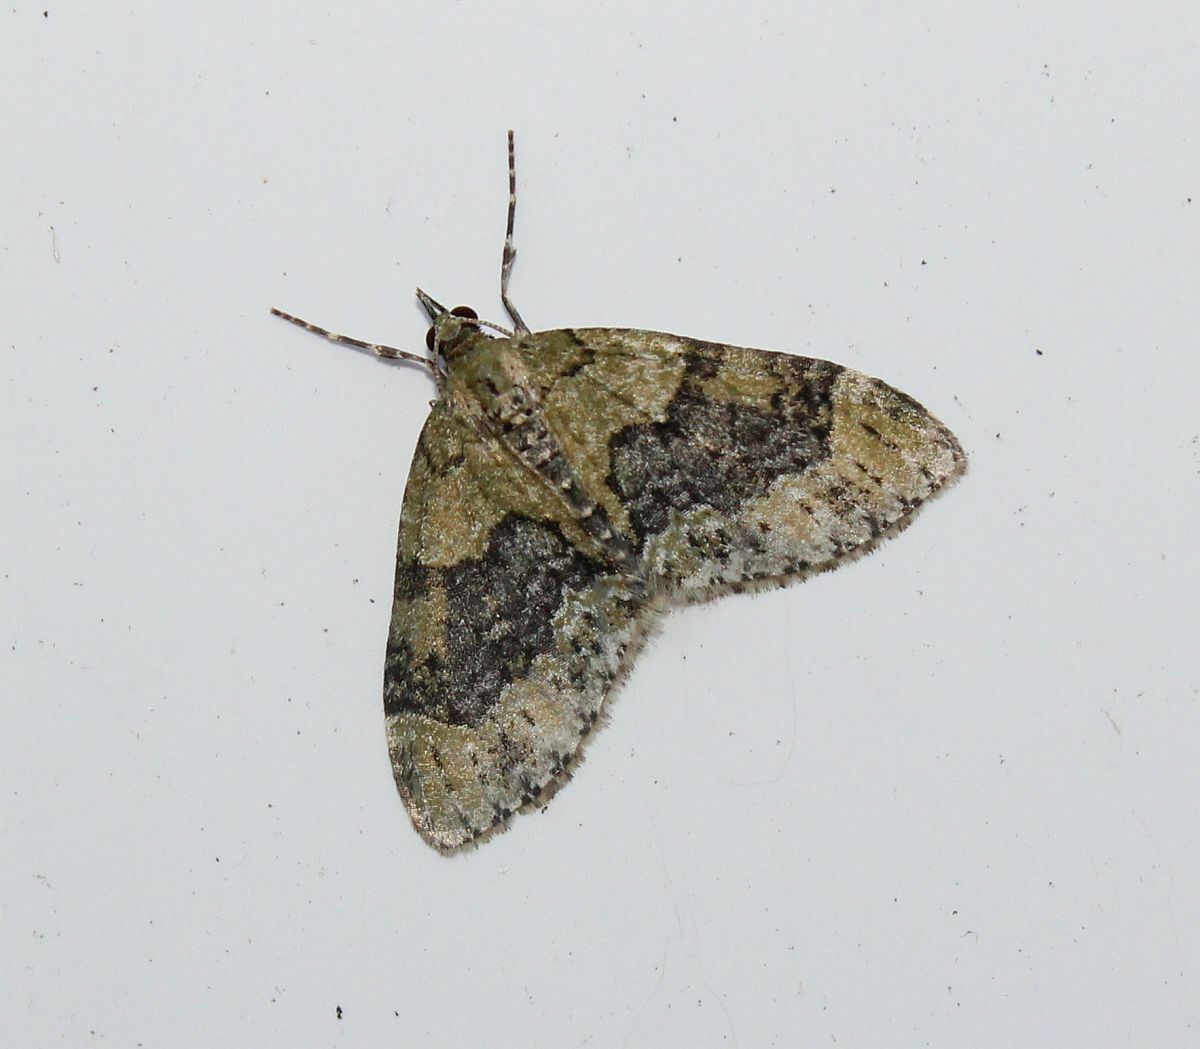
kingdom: Animalia
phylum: Arthropoda
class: Insecta
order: Lepidoptera
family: Geometridae
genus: Acasis
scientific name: Acasis viretata
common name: Yellow-barred brindle
